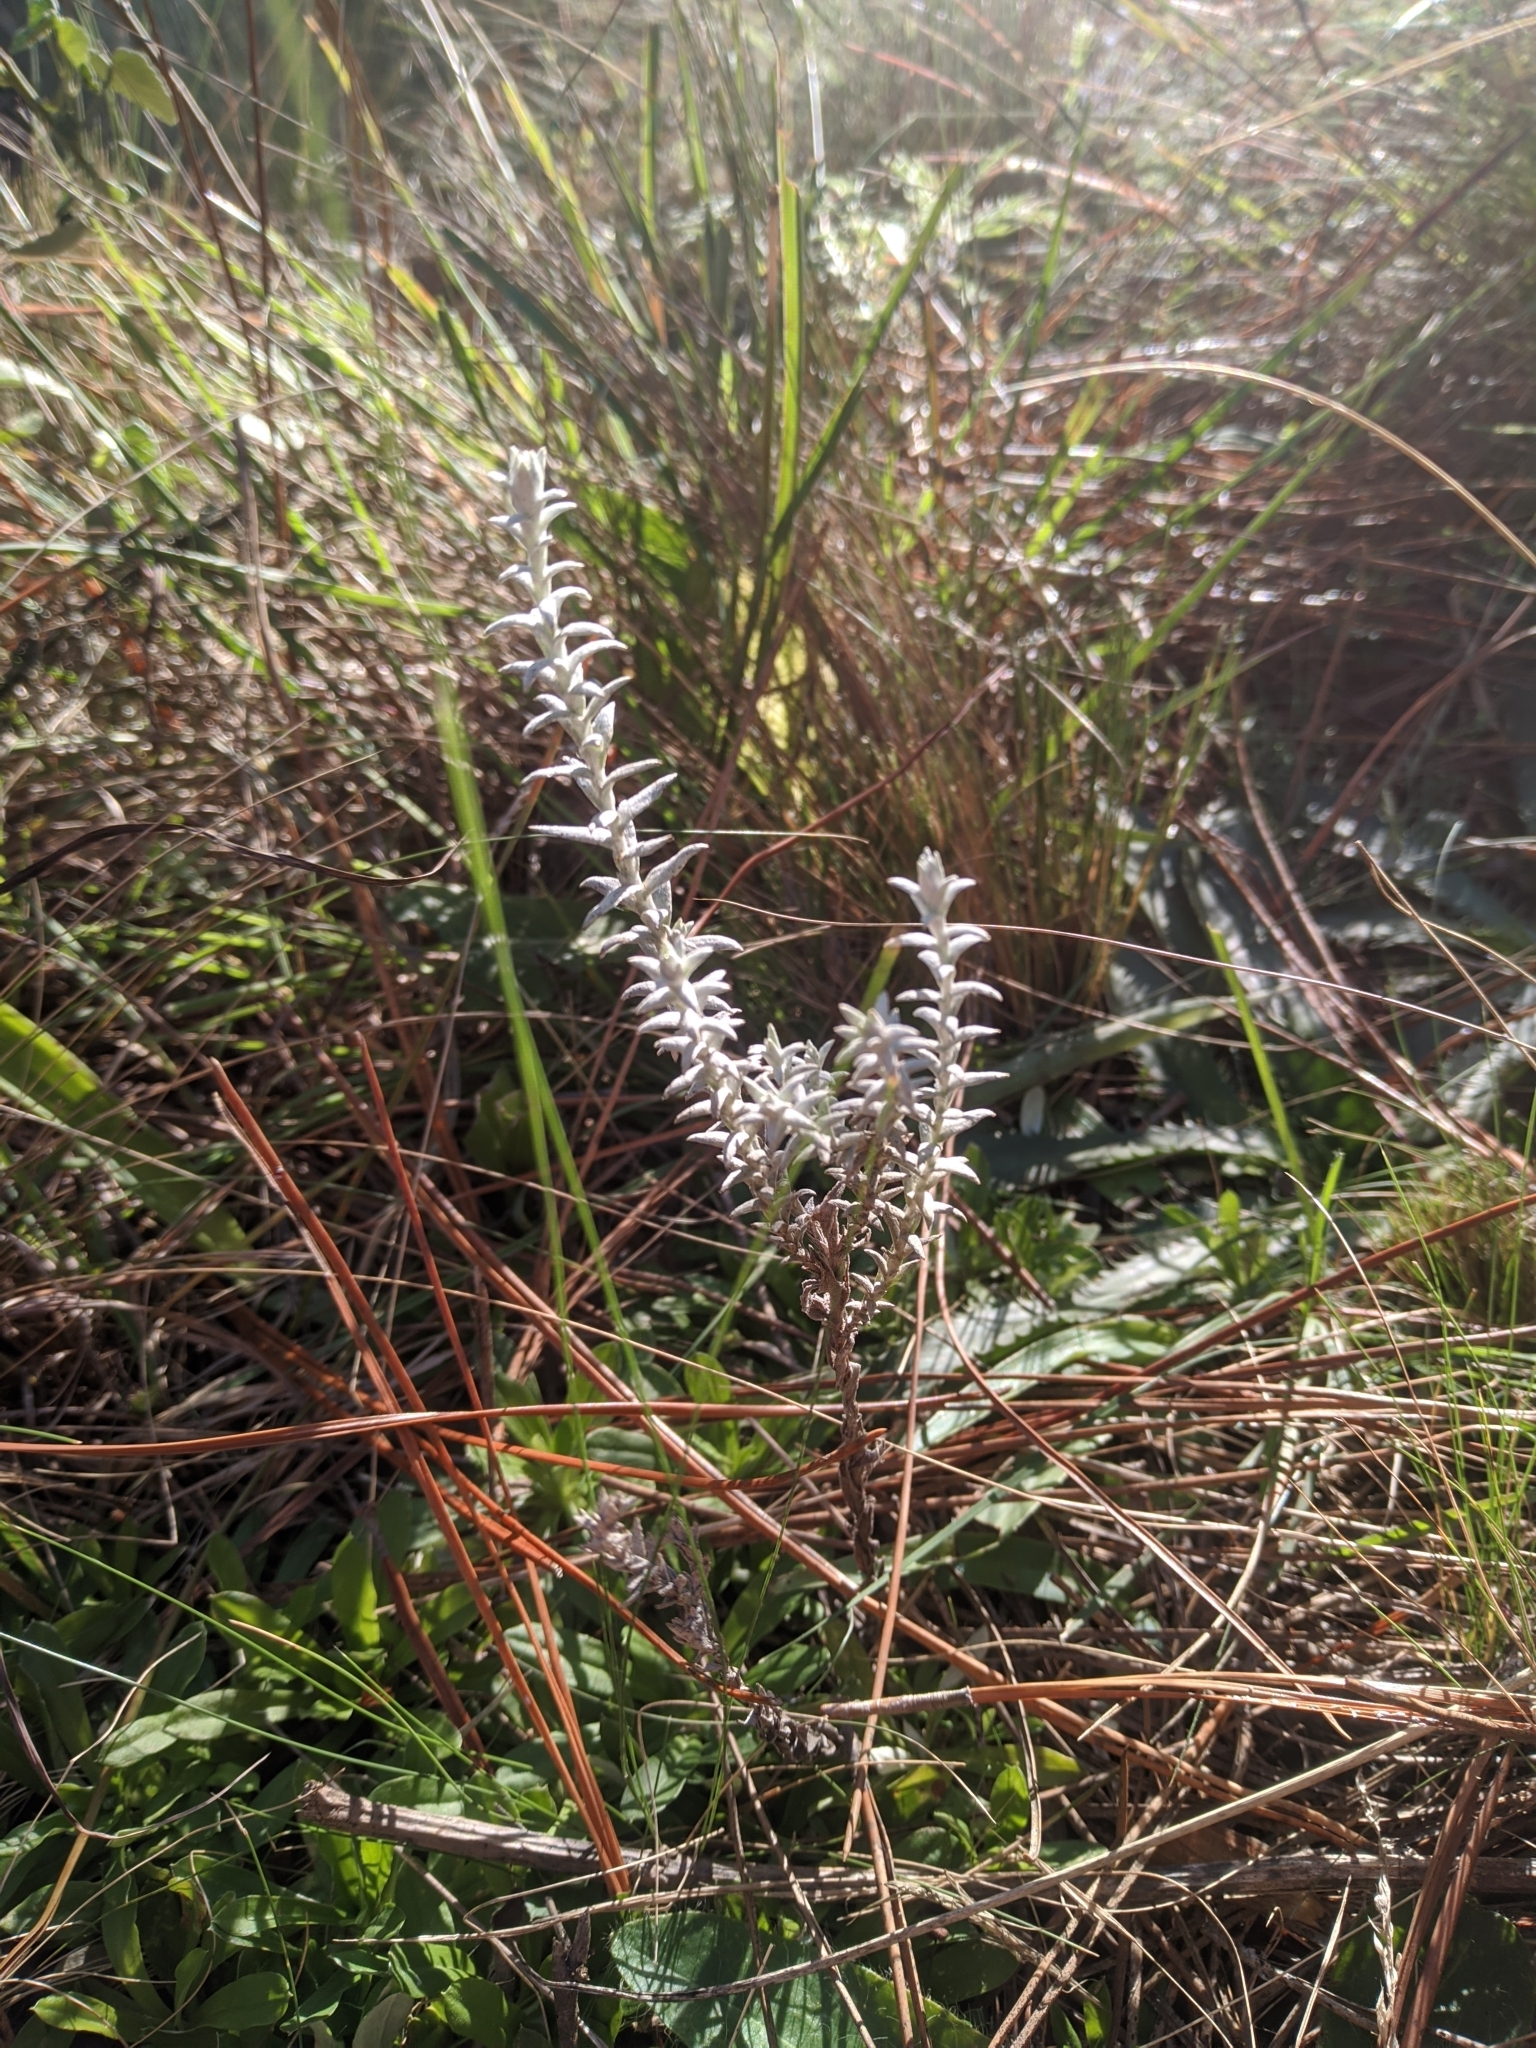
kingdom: Plantae
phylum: Tracheophyta
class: Magnoliopsida
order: Asterales
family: Asteraceae
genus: Lucilia
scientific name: Lucilia acutifolia
